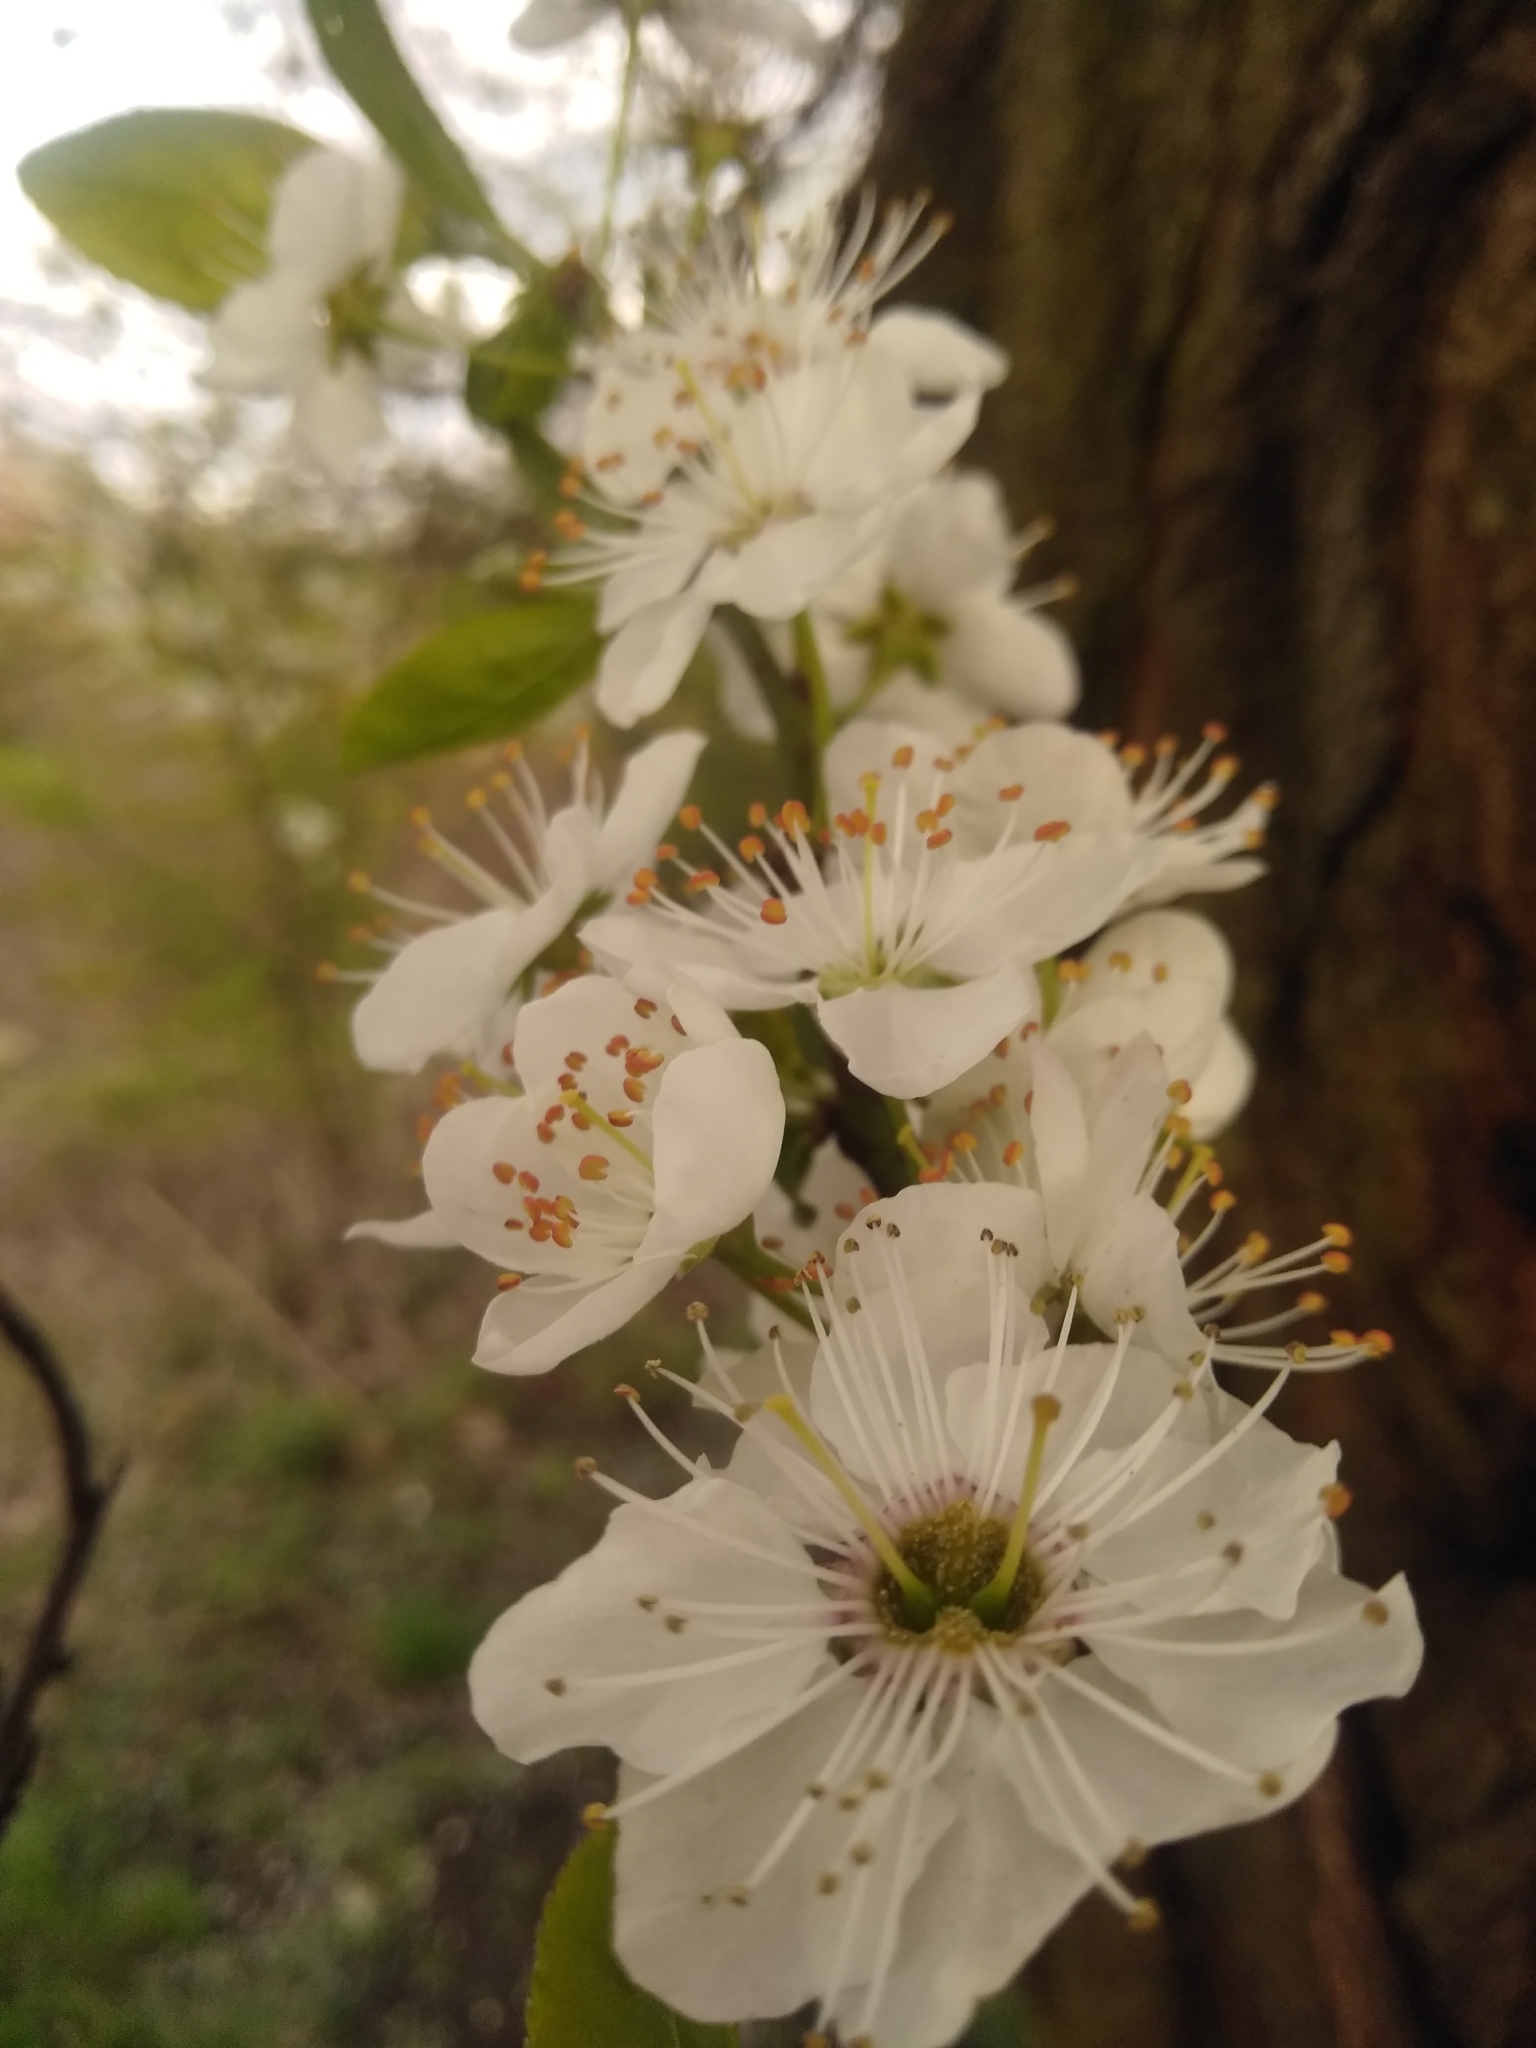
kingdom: Plantae
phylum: Tracheophyta
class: Magnoliopsida
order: Rosales
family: Rosaceae
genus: Prunus
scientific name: Prunus cerasifera
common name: Cherry plum
